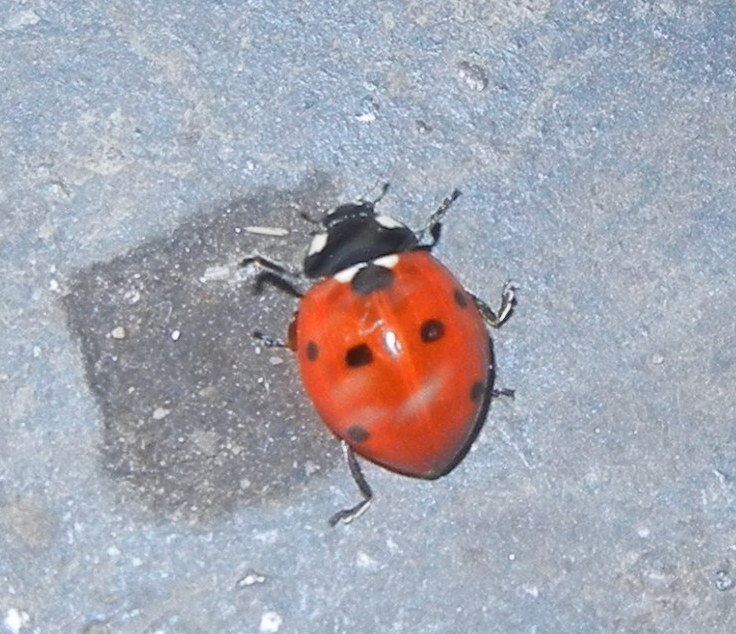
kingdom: Animalia
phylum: Arthropoda
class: Insecta
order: Coleoptera
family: Coccinellidae
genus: Coccinella
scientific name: Coccinella septempunctata
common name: Sevenspotted lady beetle
